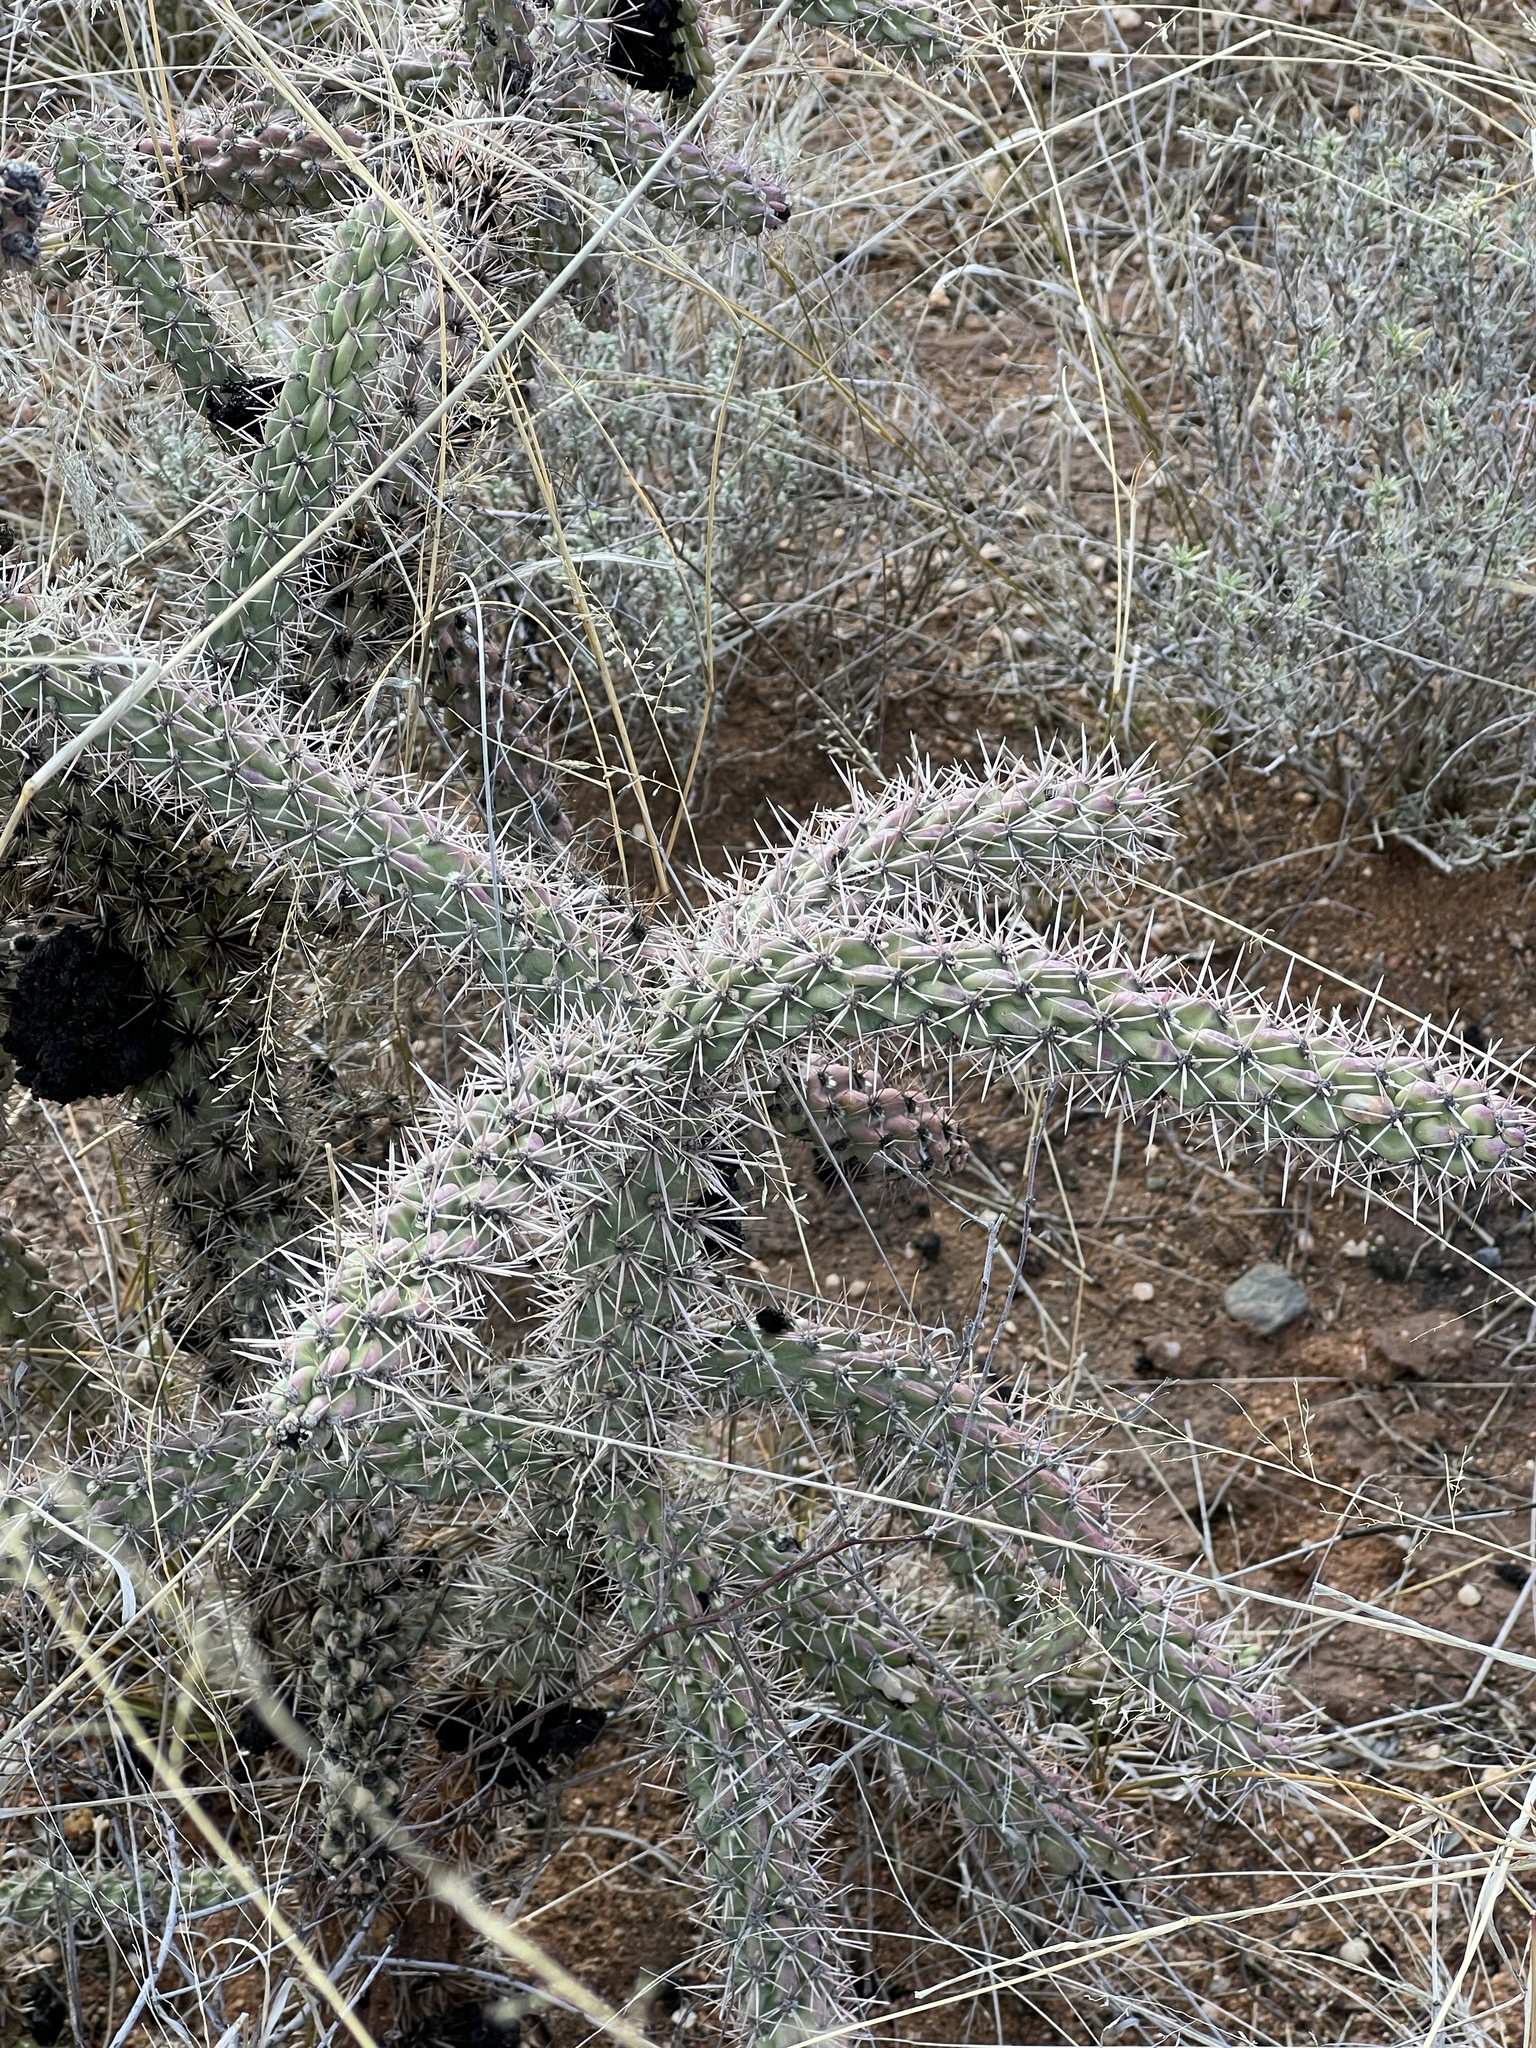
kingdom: Plantae
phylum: Tracheophyta
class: Magnoliopsida
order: Caryophyllales
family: Cactaceae
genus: Cylindropuntia
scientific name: Cylindropuntia imbricata
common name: Candelabrum cactus
